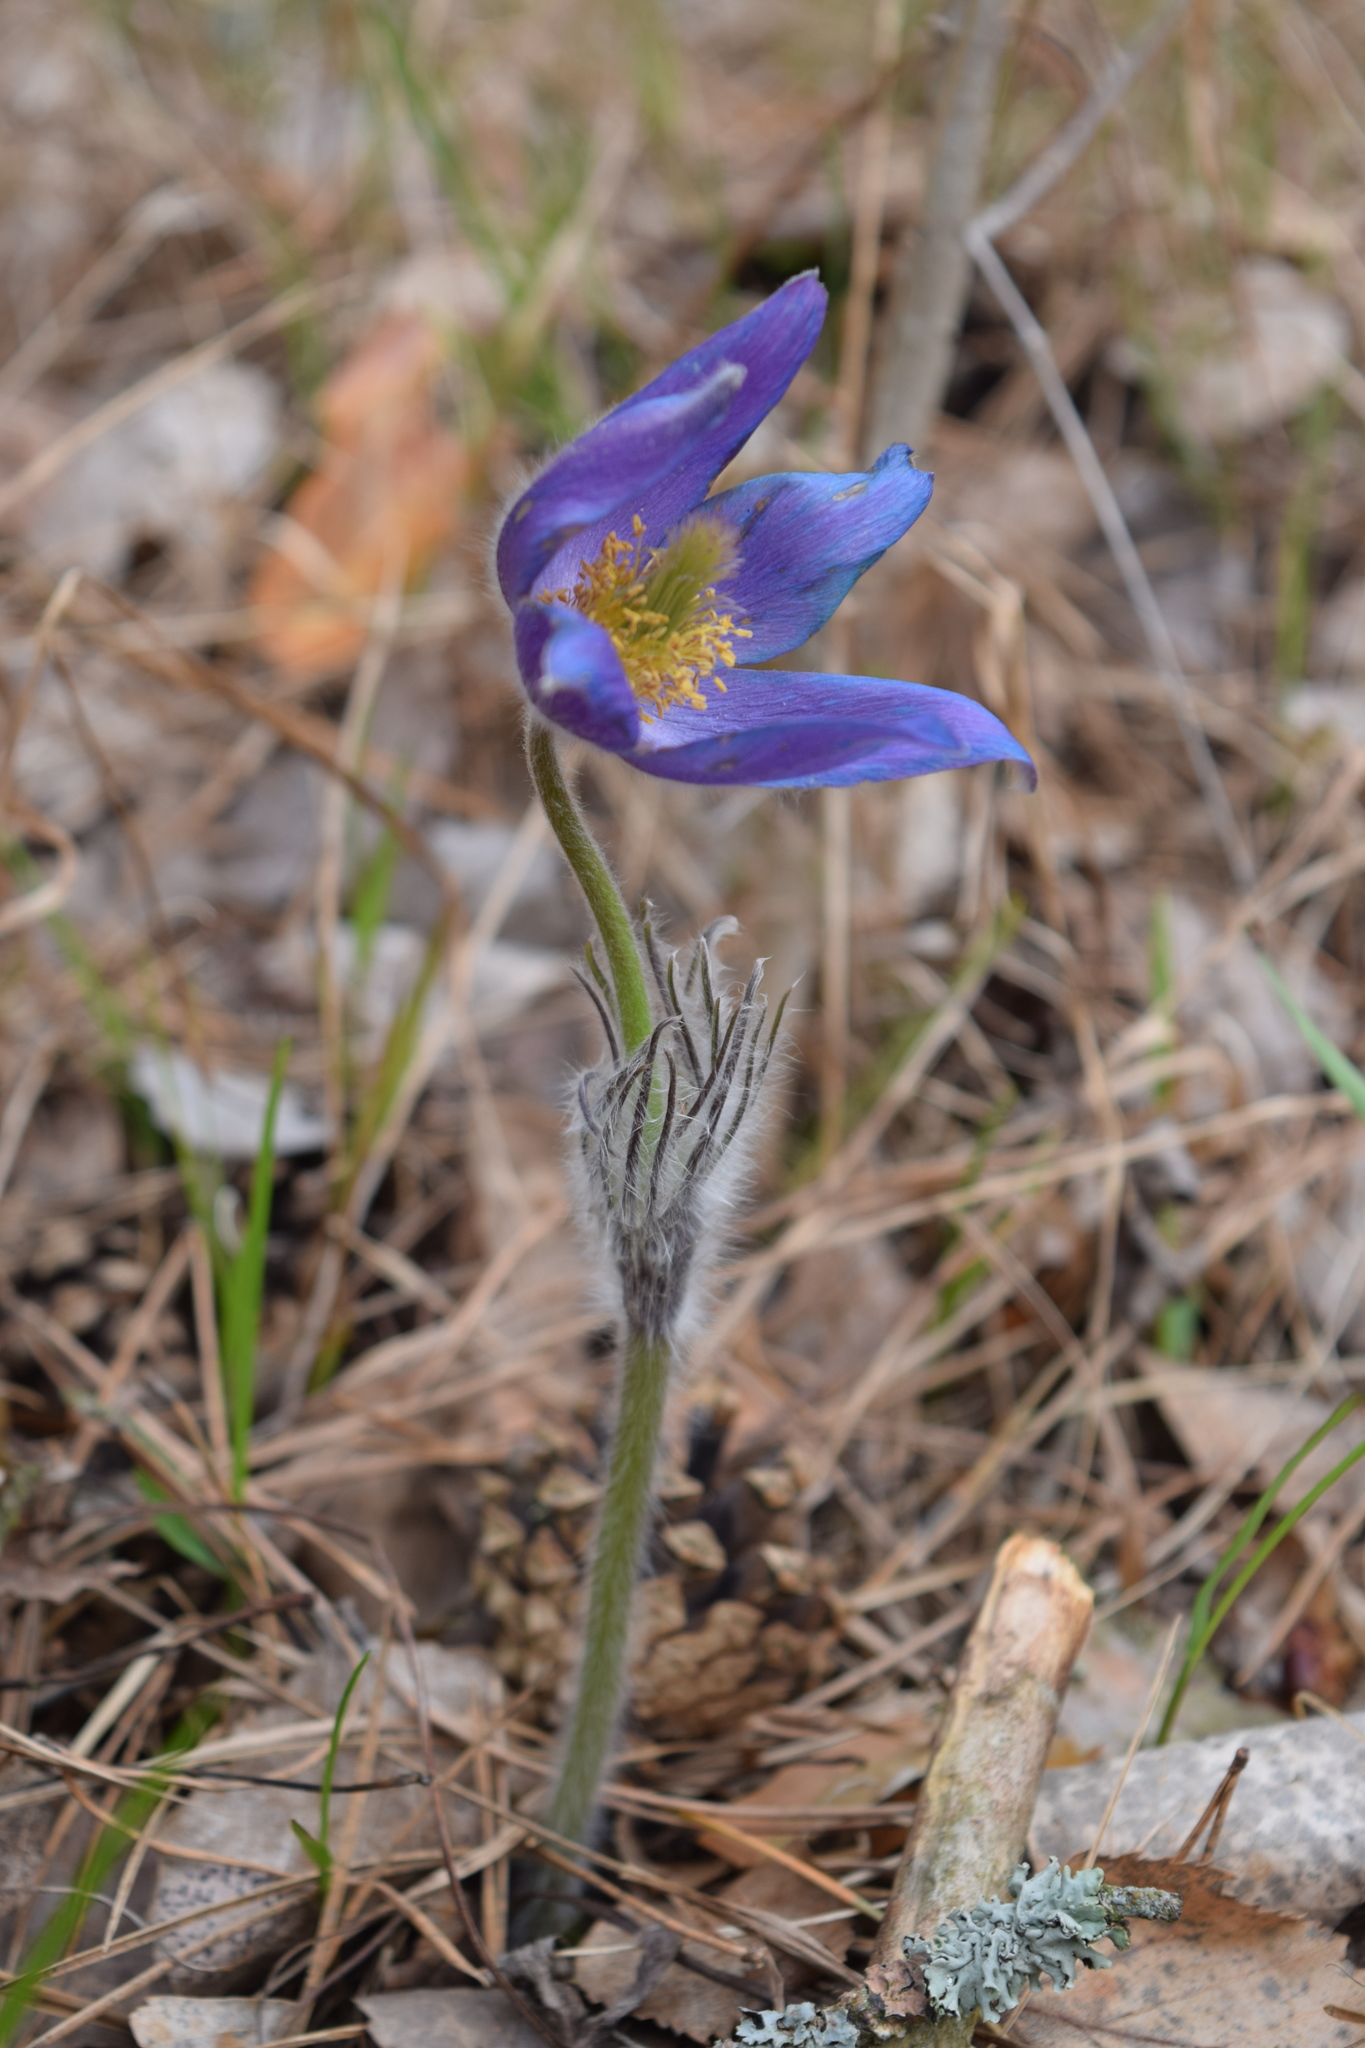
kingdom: Plantae
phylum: Tracheophyta
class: Magnoliopsida
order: Ranunculales
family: Ranunculaceae
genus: Pulsatilla
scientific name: Pulsatilla patens
